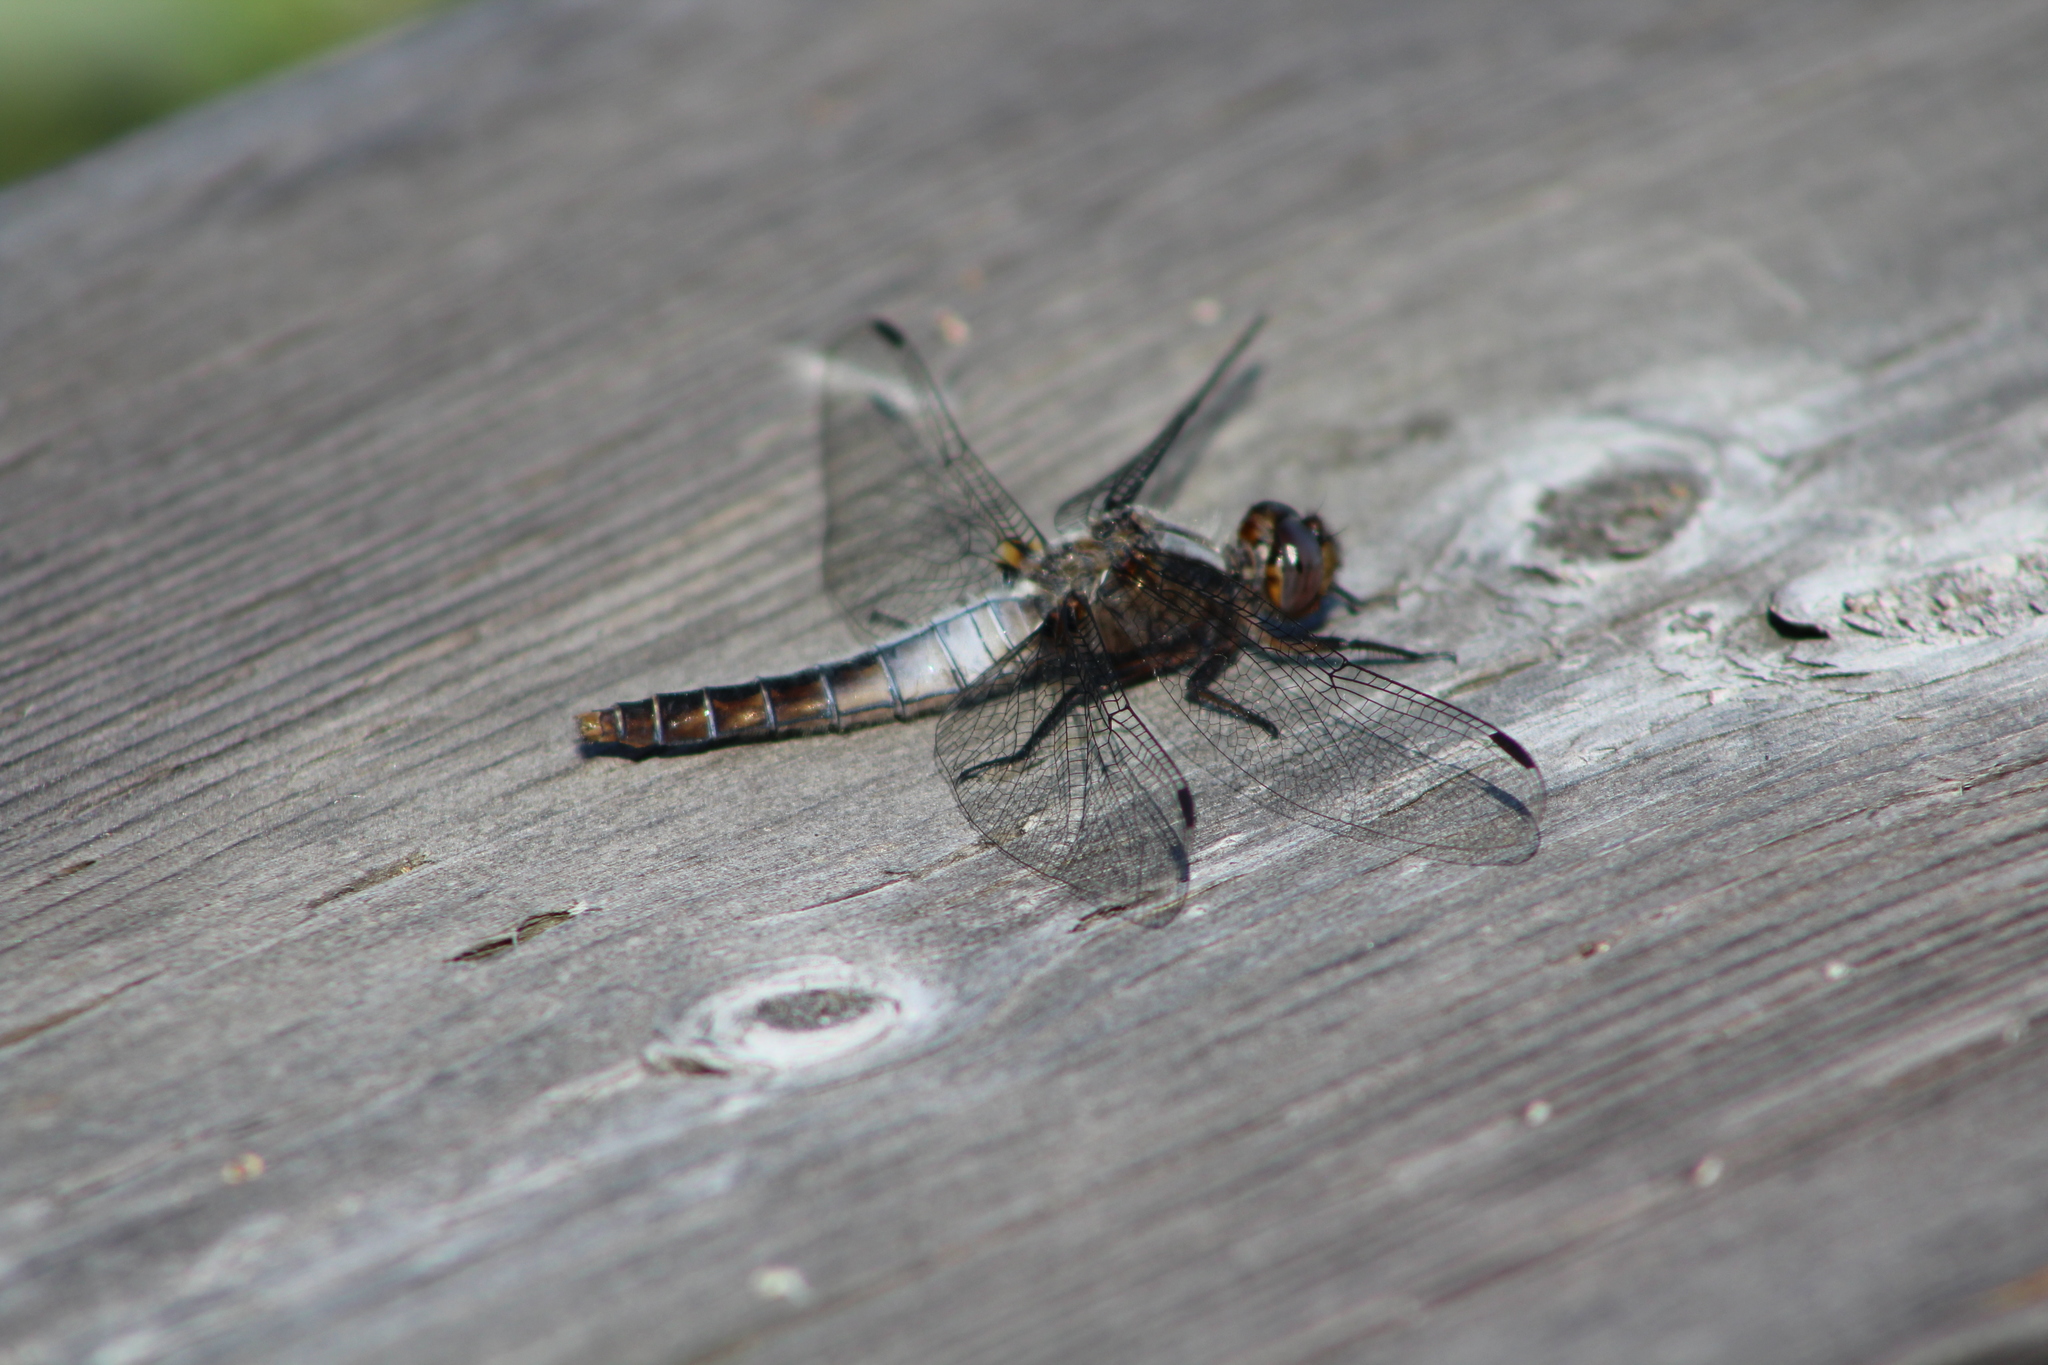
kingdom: Animalia
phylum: Arthropoda
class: Insecta
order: Odonata
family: Libellulidae
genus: Ladona
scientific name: Ladona julia
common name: Chalk-fronted corporal
